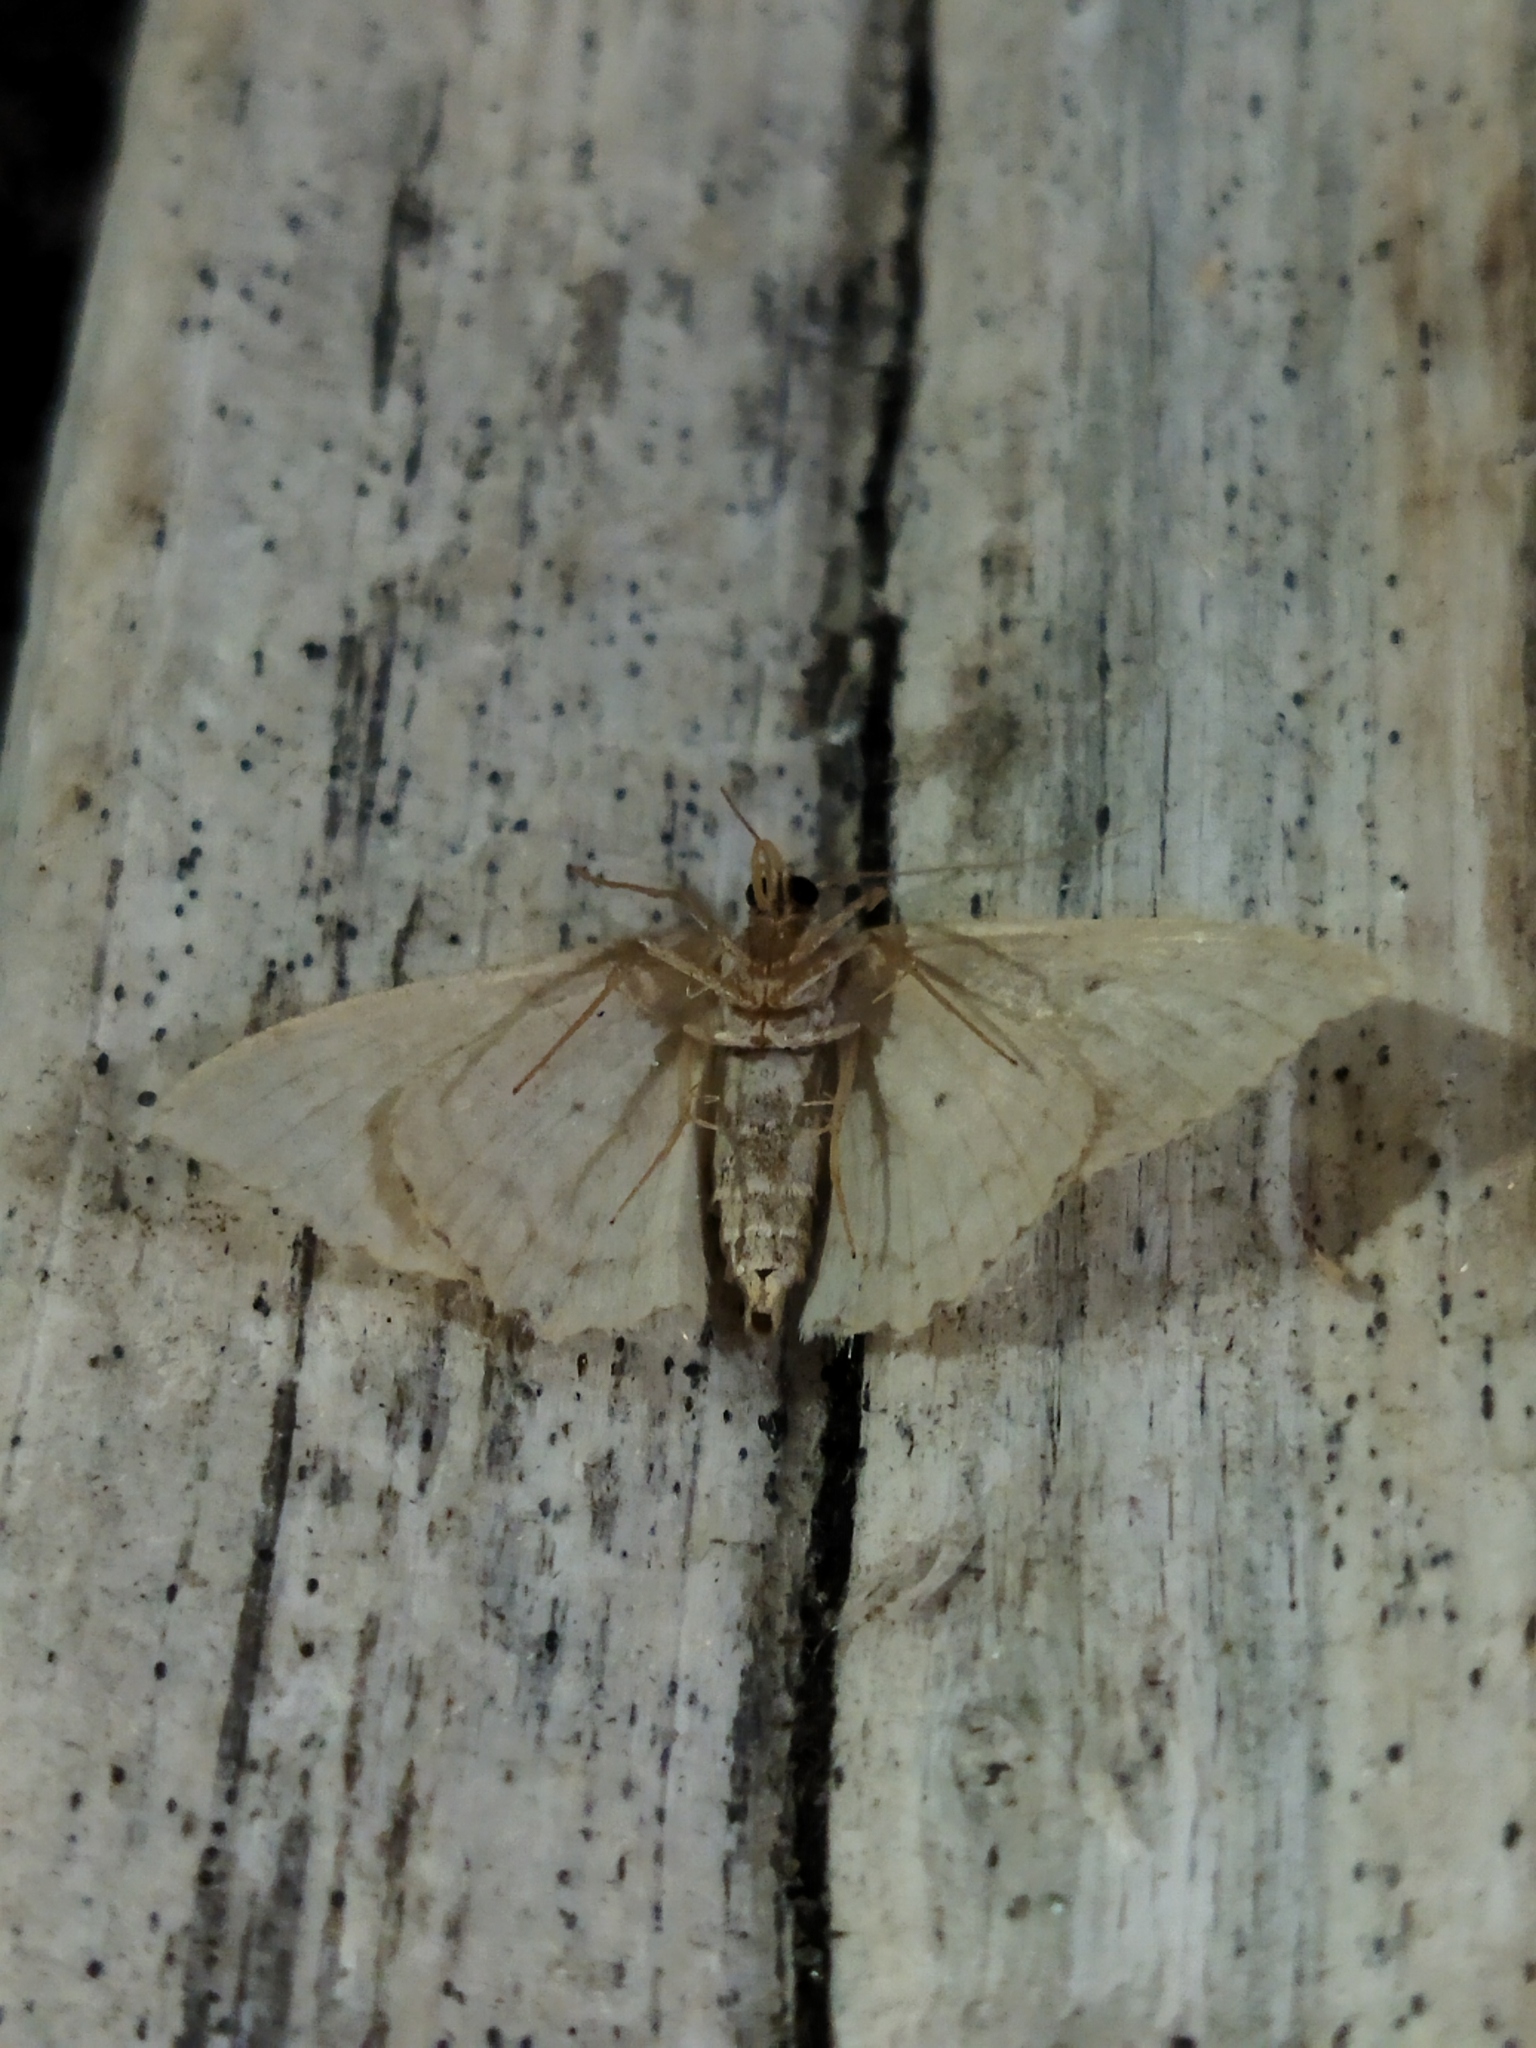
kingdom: Animalia
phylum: Arthropoda
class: Insecta
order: Lepidoptera
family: Geometridae
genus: Scopula
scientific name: Scopula marginepunctata
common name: Mullein wave
